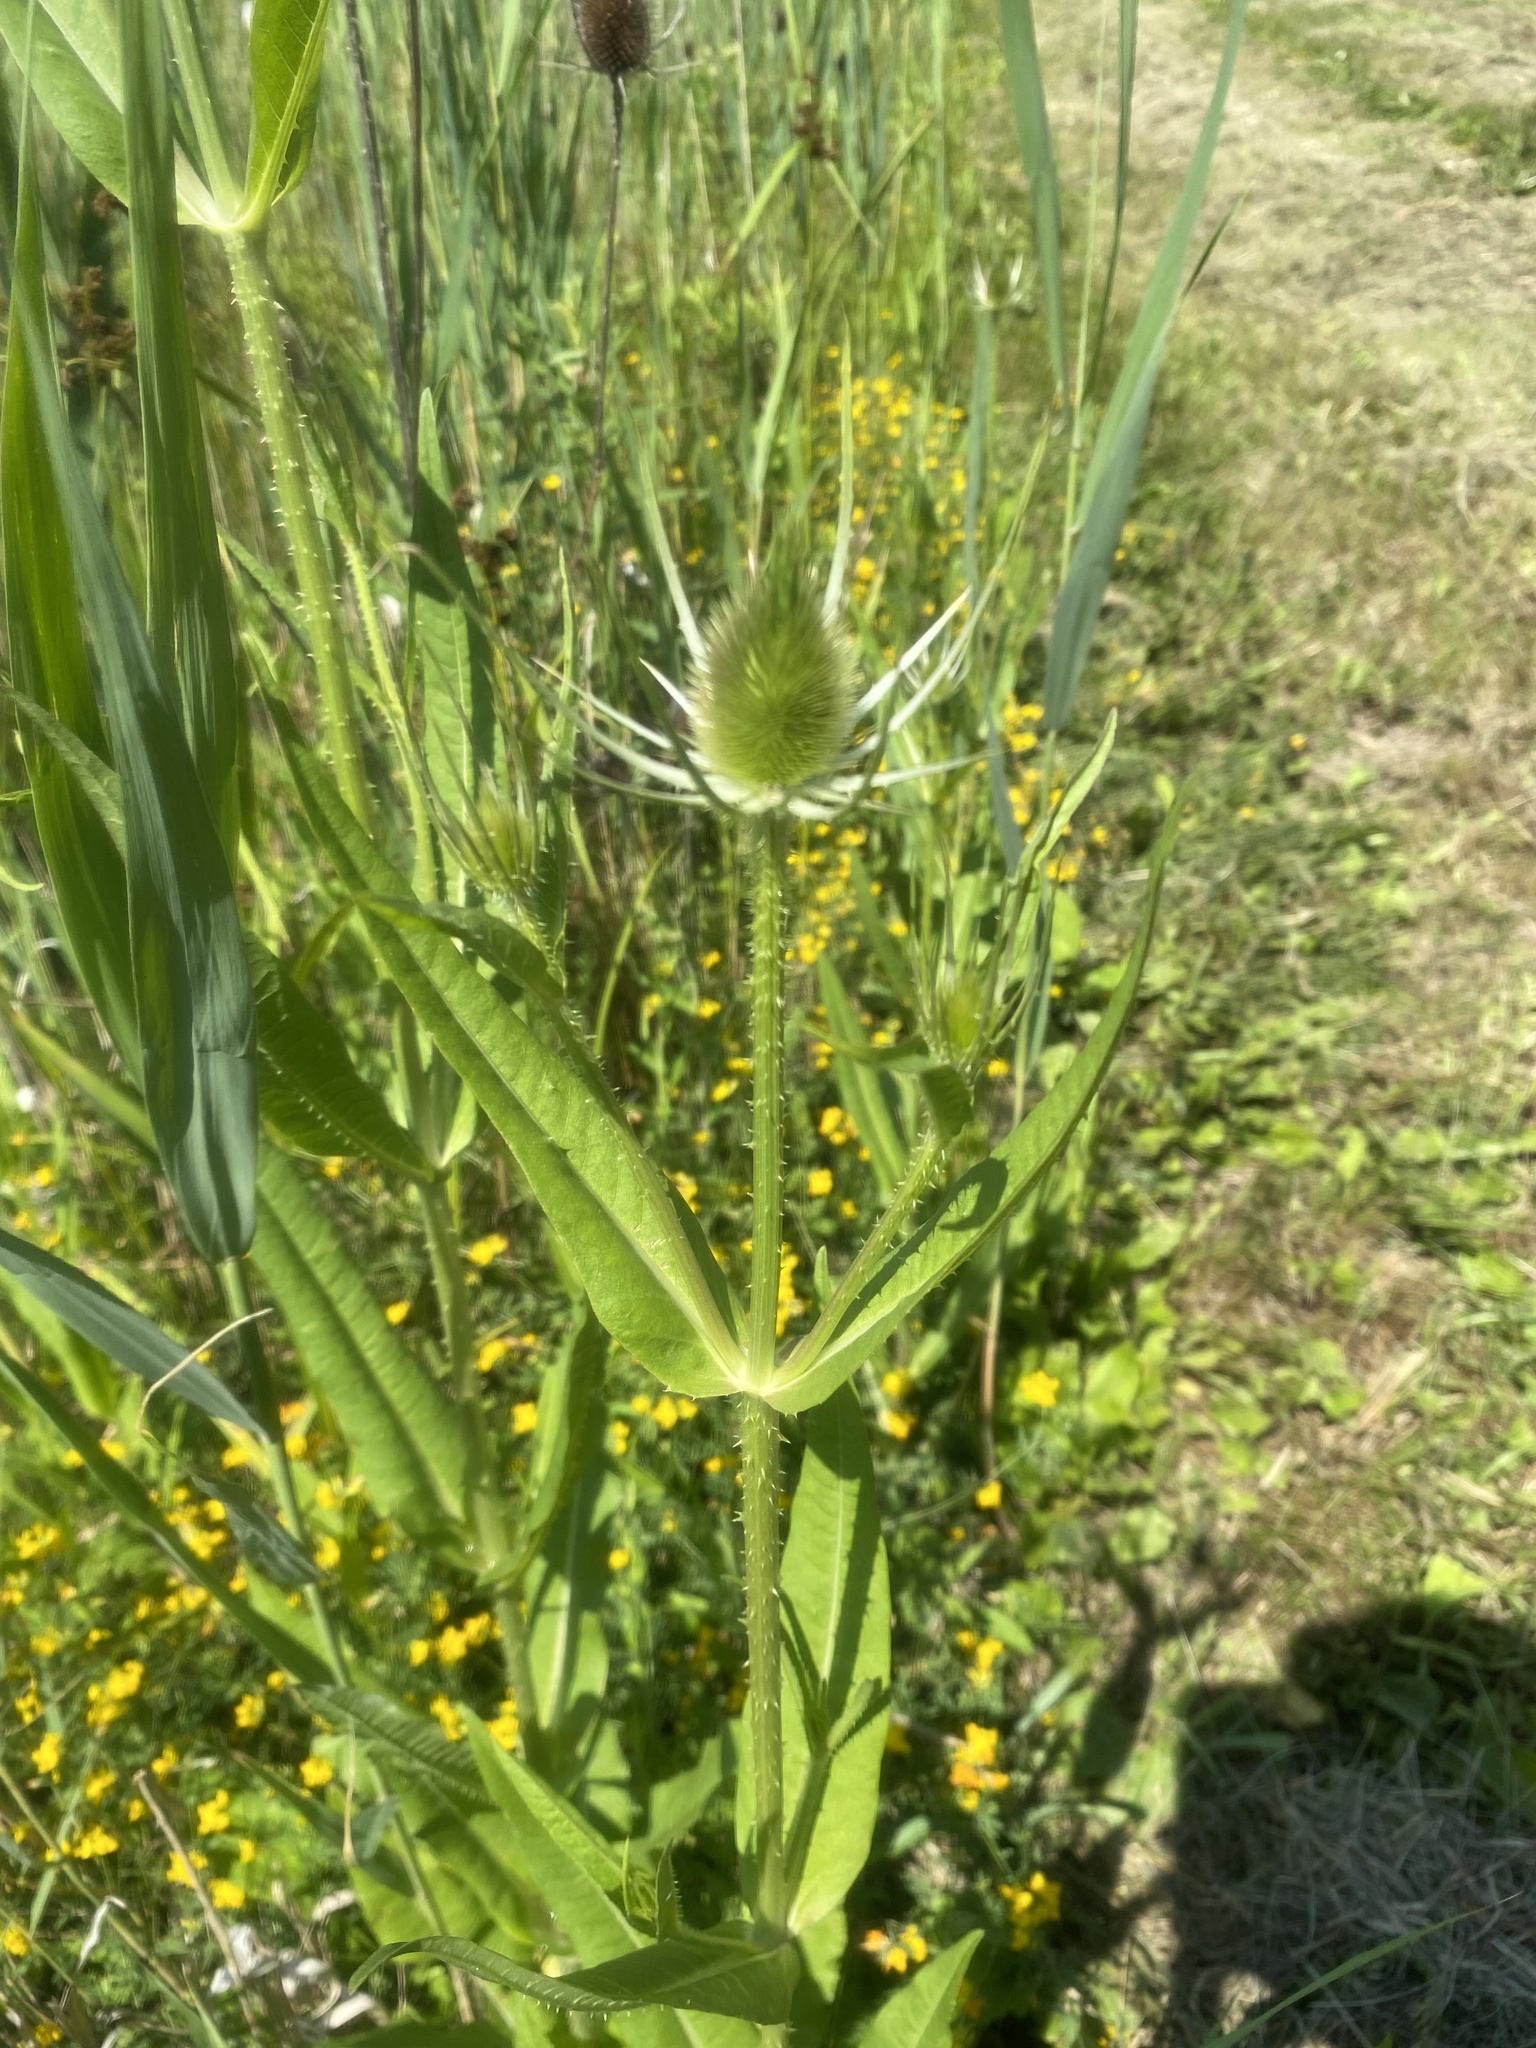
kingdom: Plantae
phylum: Tracheophyta
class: Magnoliopsida
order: Dipsacales
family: Caprifoliaceae
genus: Dipsacus
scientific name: Dipsacus fullonum
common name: Teasel
